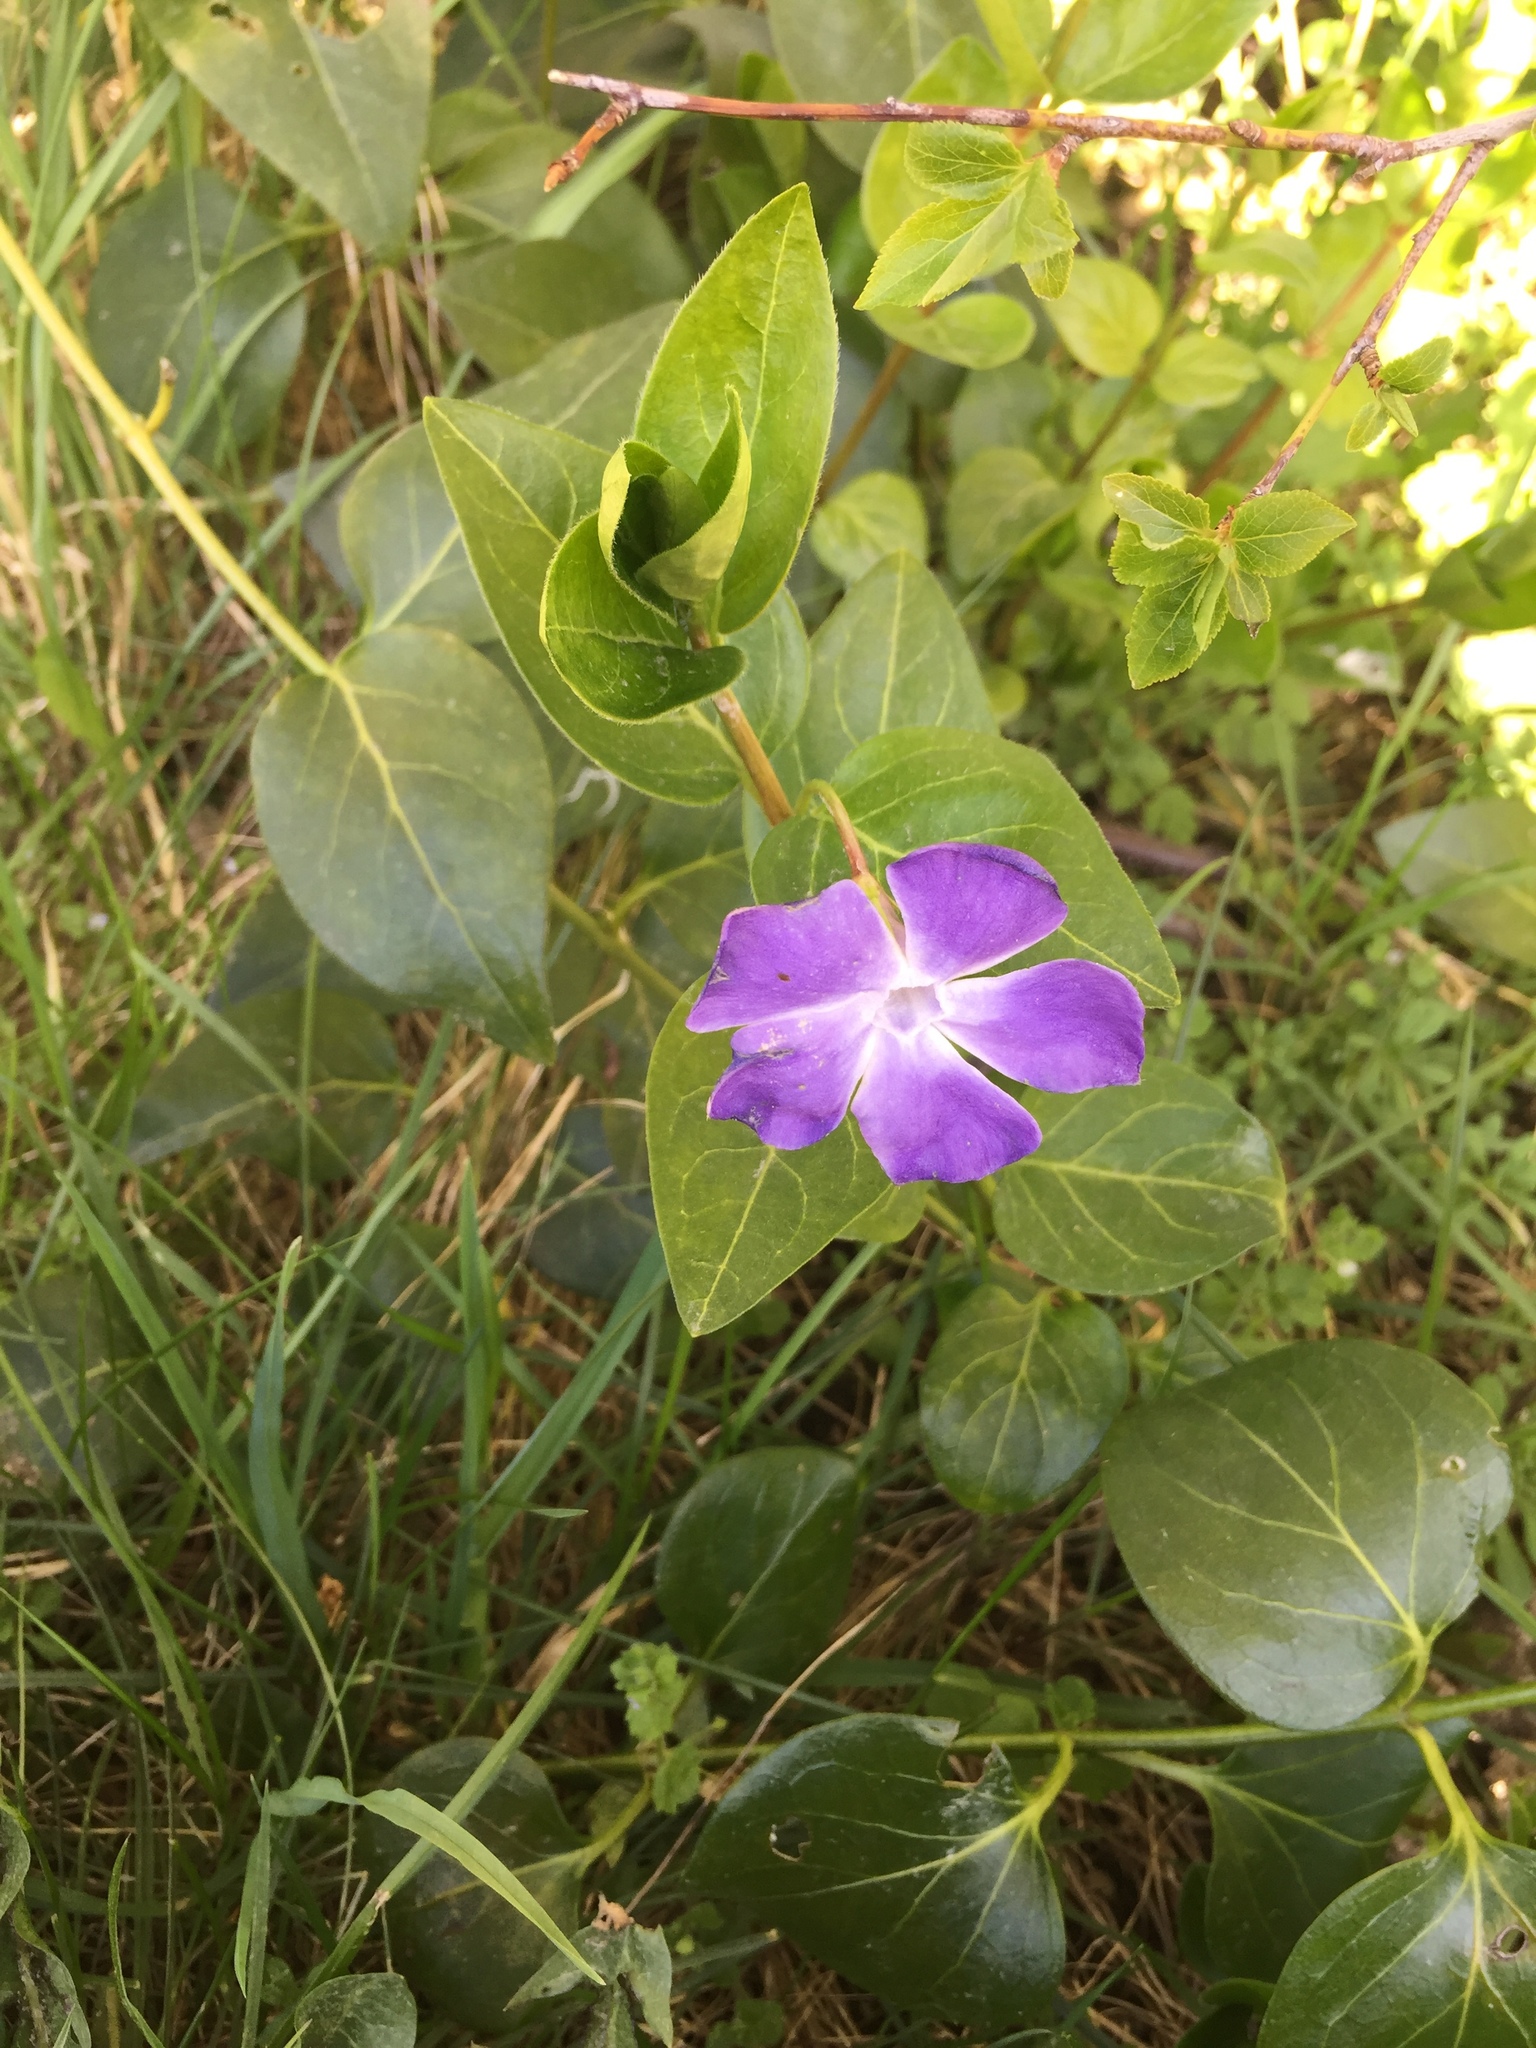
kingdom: Plantae
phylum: Tracheophyta
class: Magnoliopsida
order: Gentianales
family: Apocynaceae
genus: Vinca
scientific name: Vinca major
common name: Greater periwinkle
